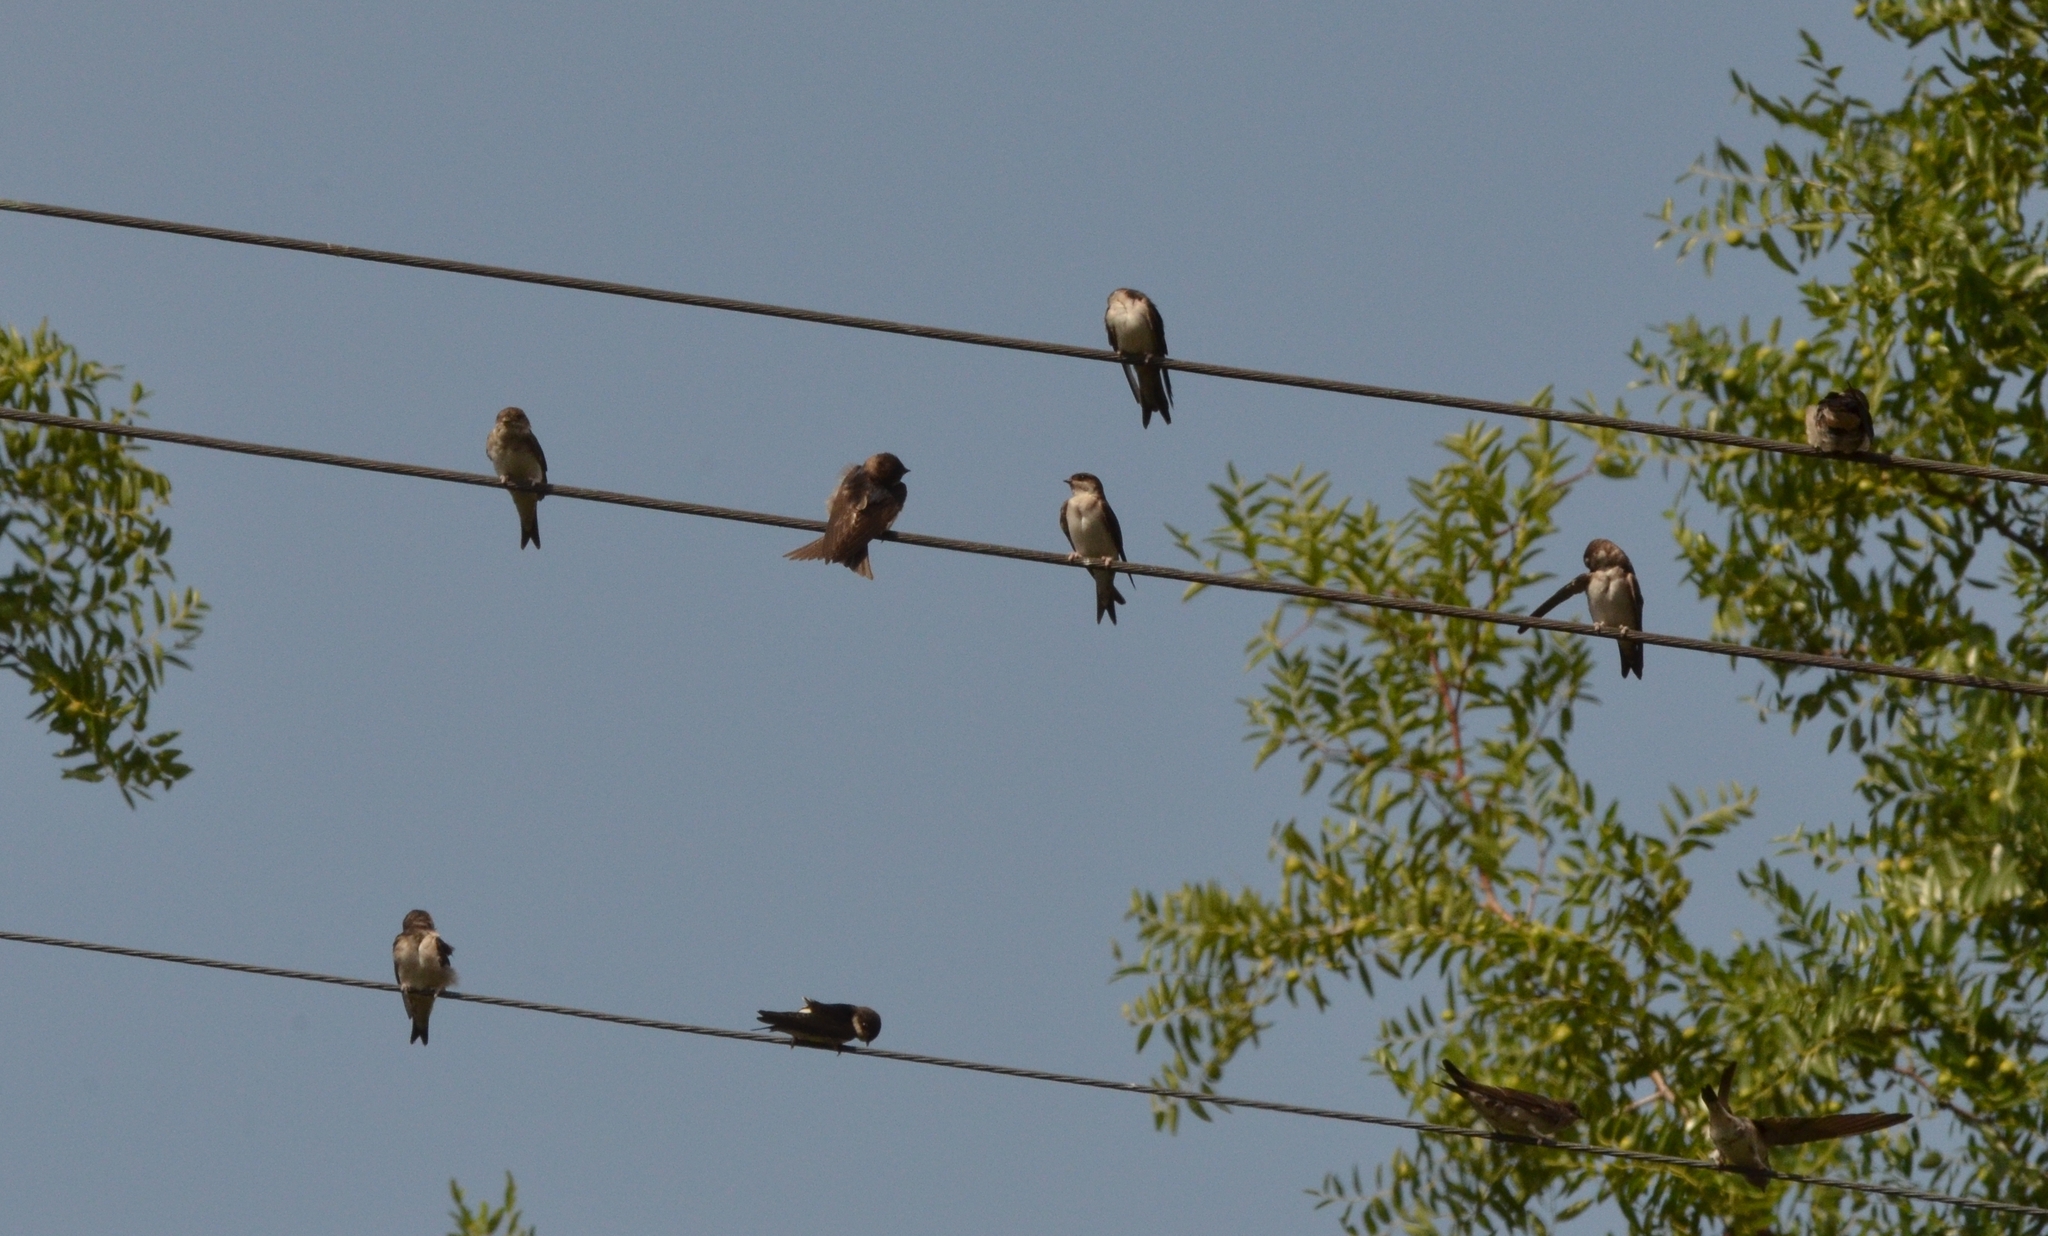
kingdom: Animalia
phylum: Chordata
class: Aves
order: Passeriformes
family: Hirundinidae
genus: Delichon
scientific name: Delichon urbicum
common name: Common house martin
